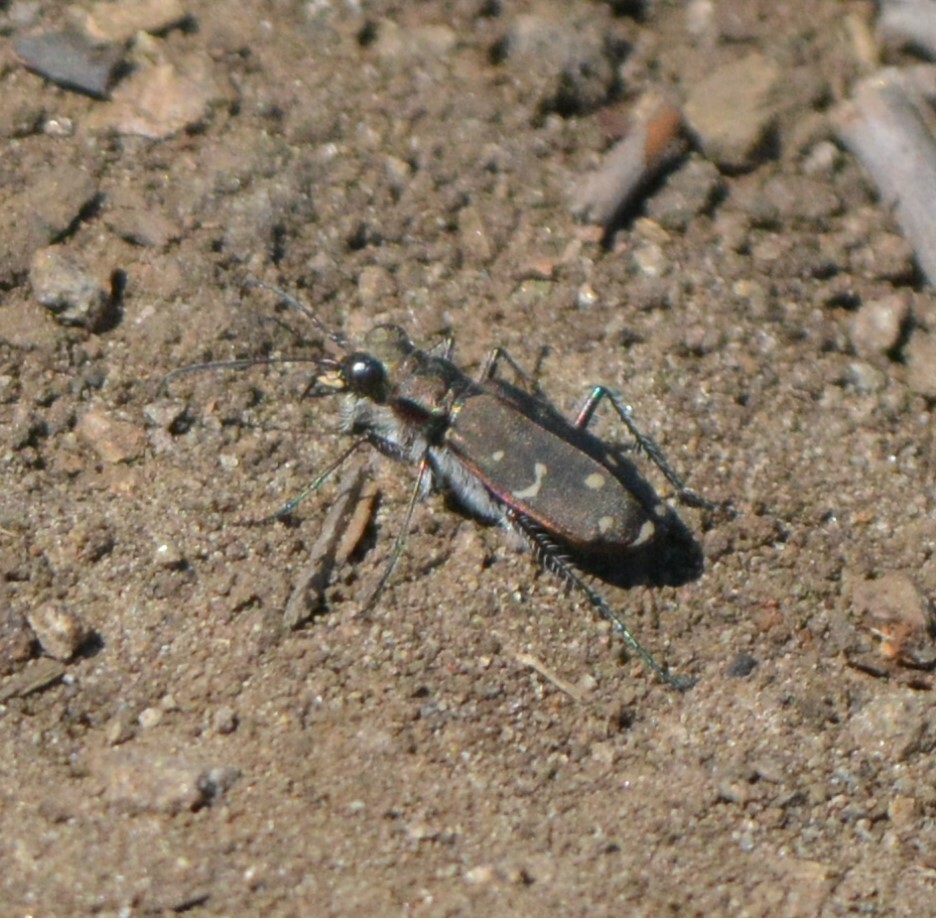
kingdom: Animalia
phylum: Arthropoda
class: Insecta
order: Coleoptera
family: Carabidae
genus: Cicindela
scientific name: Cicindela duodecimguttata
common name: Twelve-spotted tiger beetle
